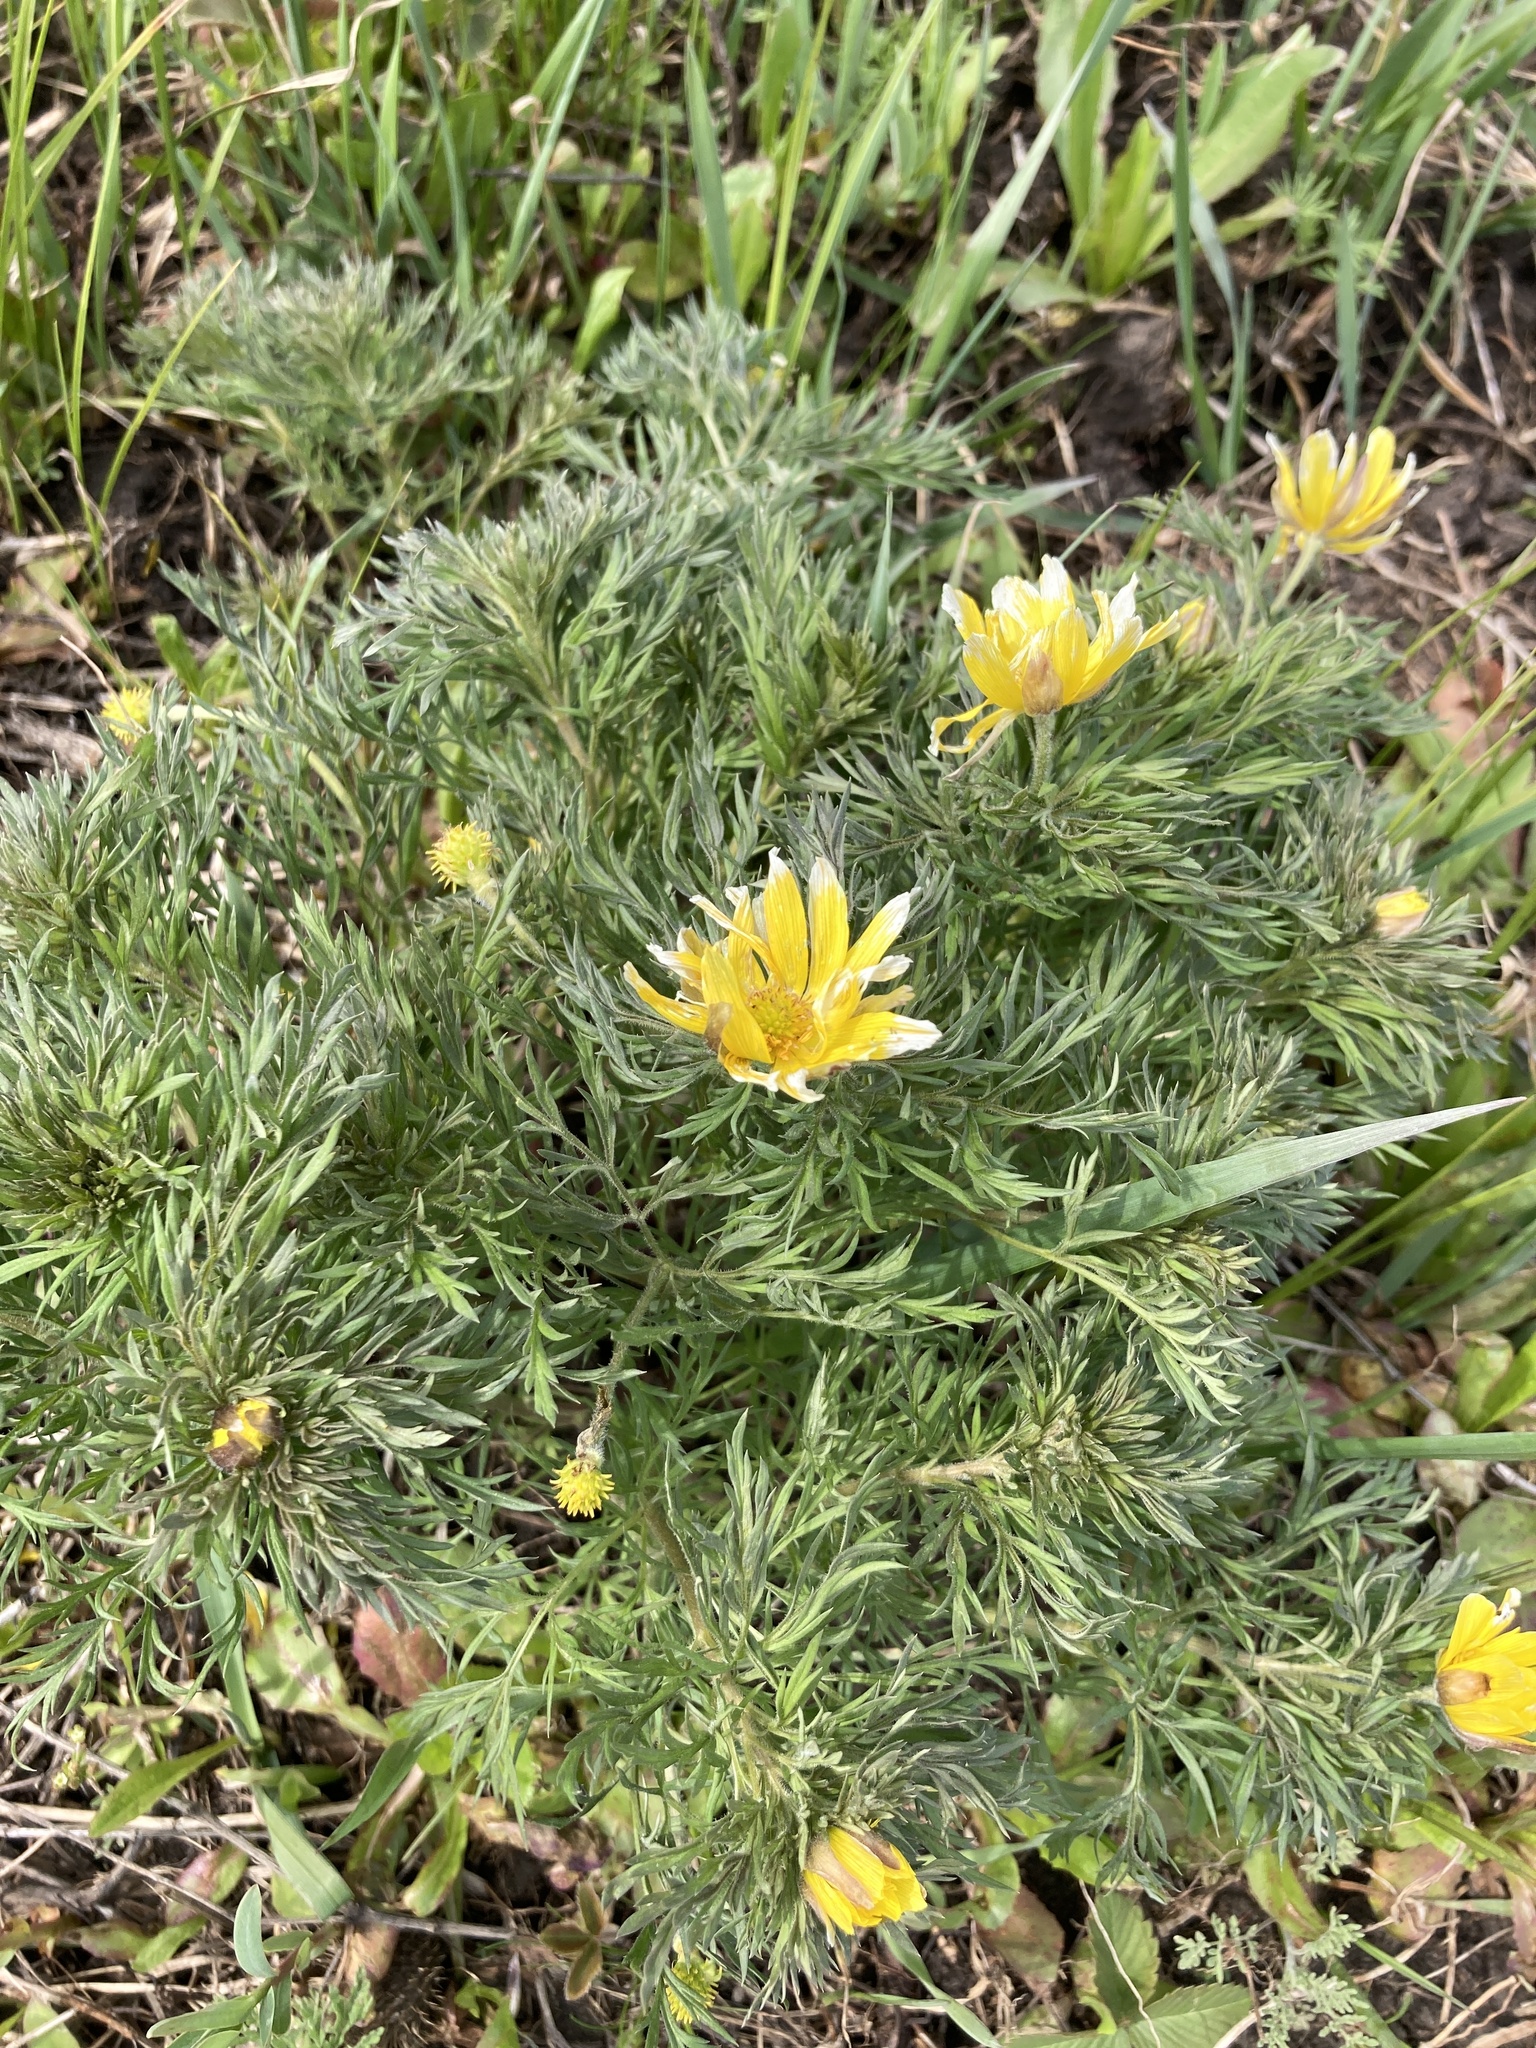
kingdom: Plantae
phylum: Tracheophyta
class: Magnoliopsida
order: Ranunculales
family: Ranunculaceae
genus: Adonis
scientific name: Adonis volgensis
